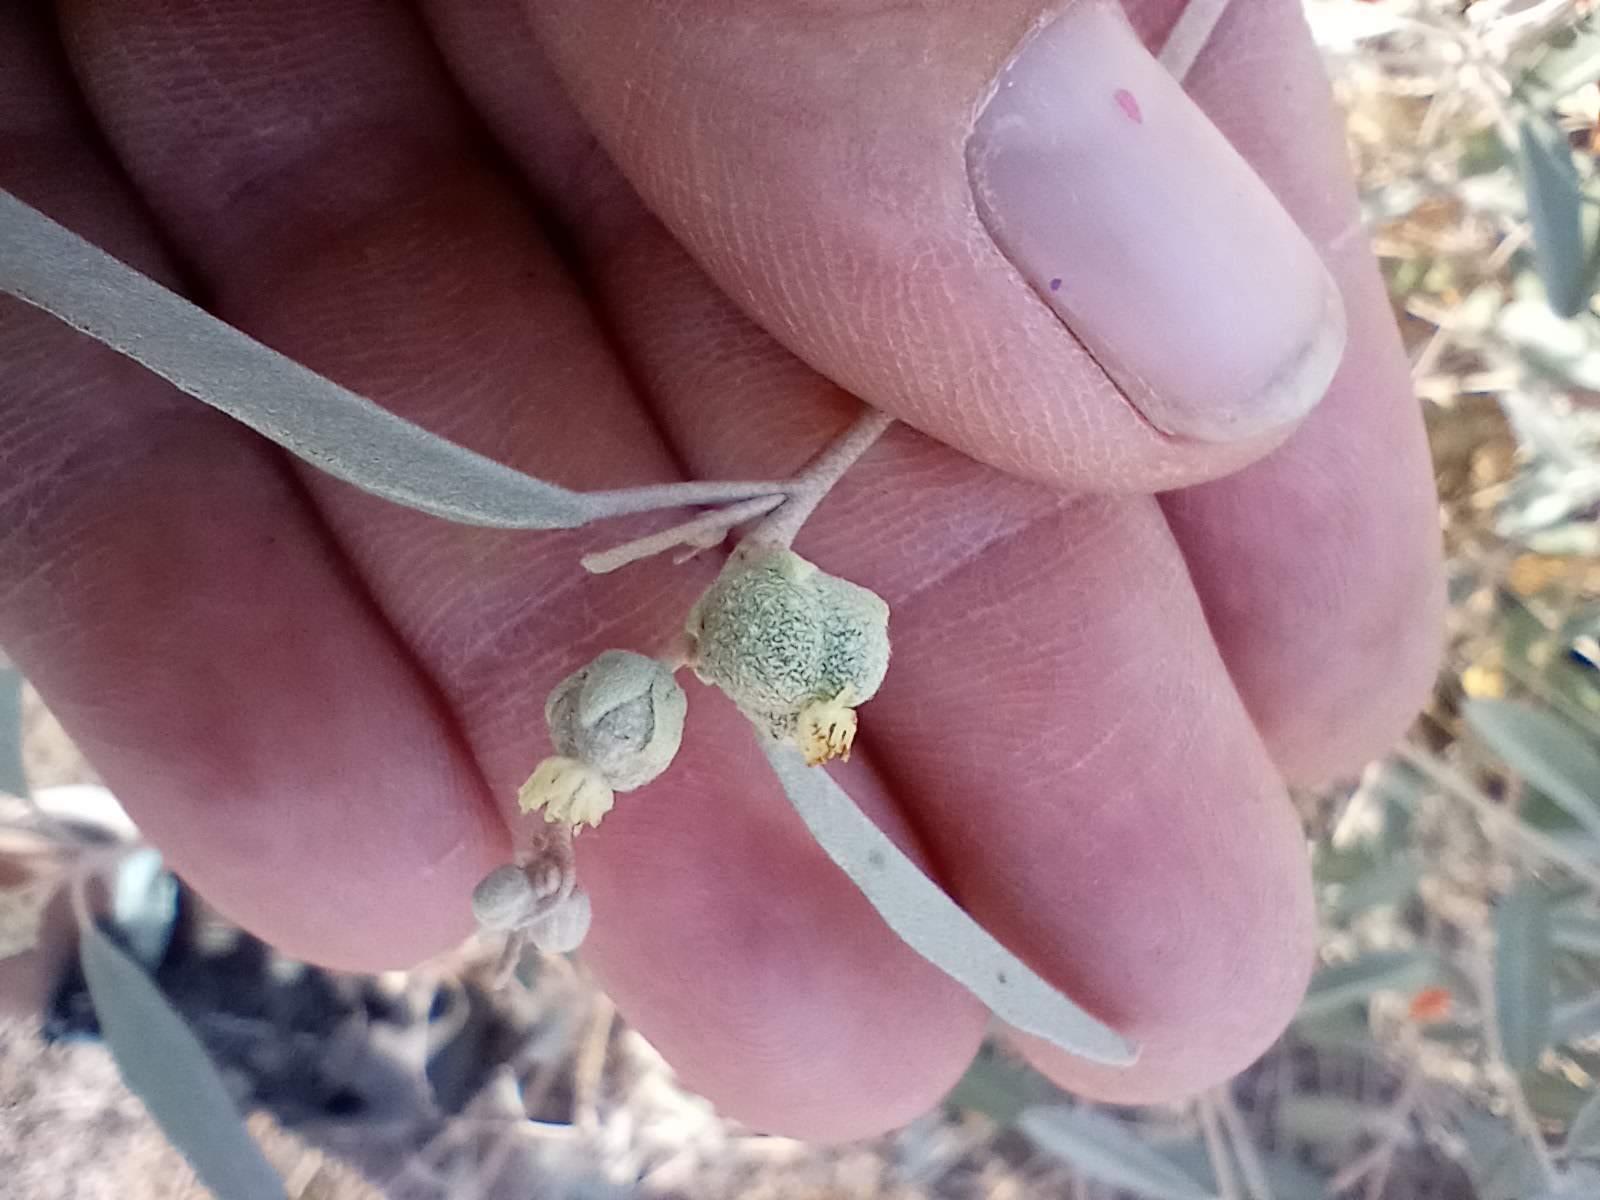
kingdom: Plantae
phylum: Tracheophyta
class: Magnoliopsida
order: Malpighiales
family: Euphorbiaceae
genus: Croton
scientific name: Croton californicus
